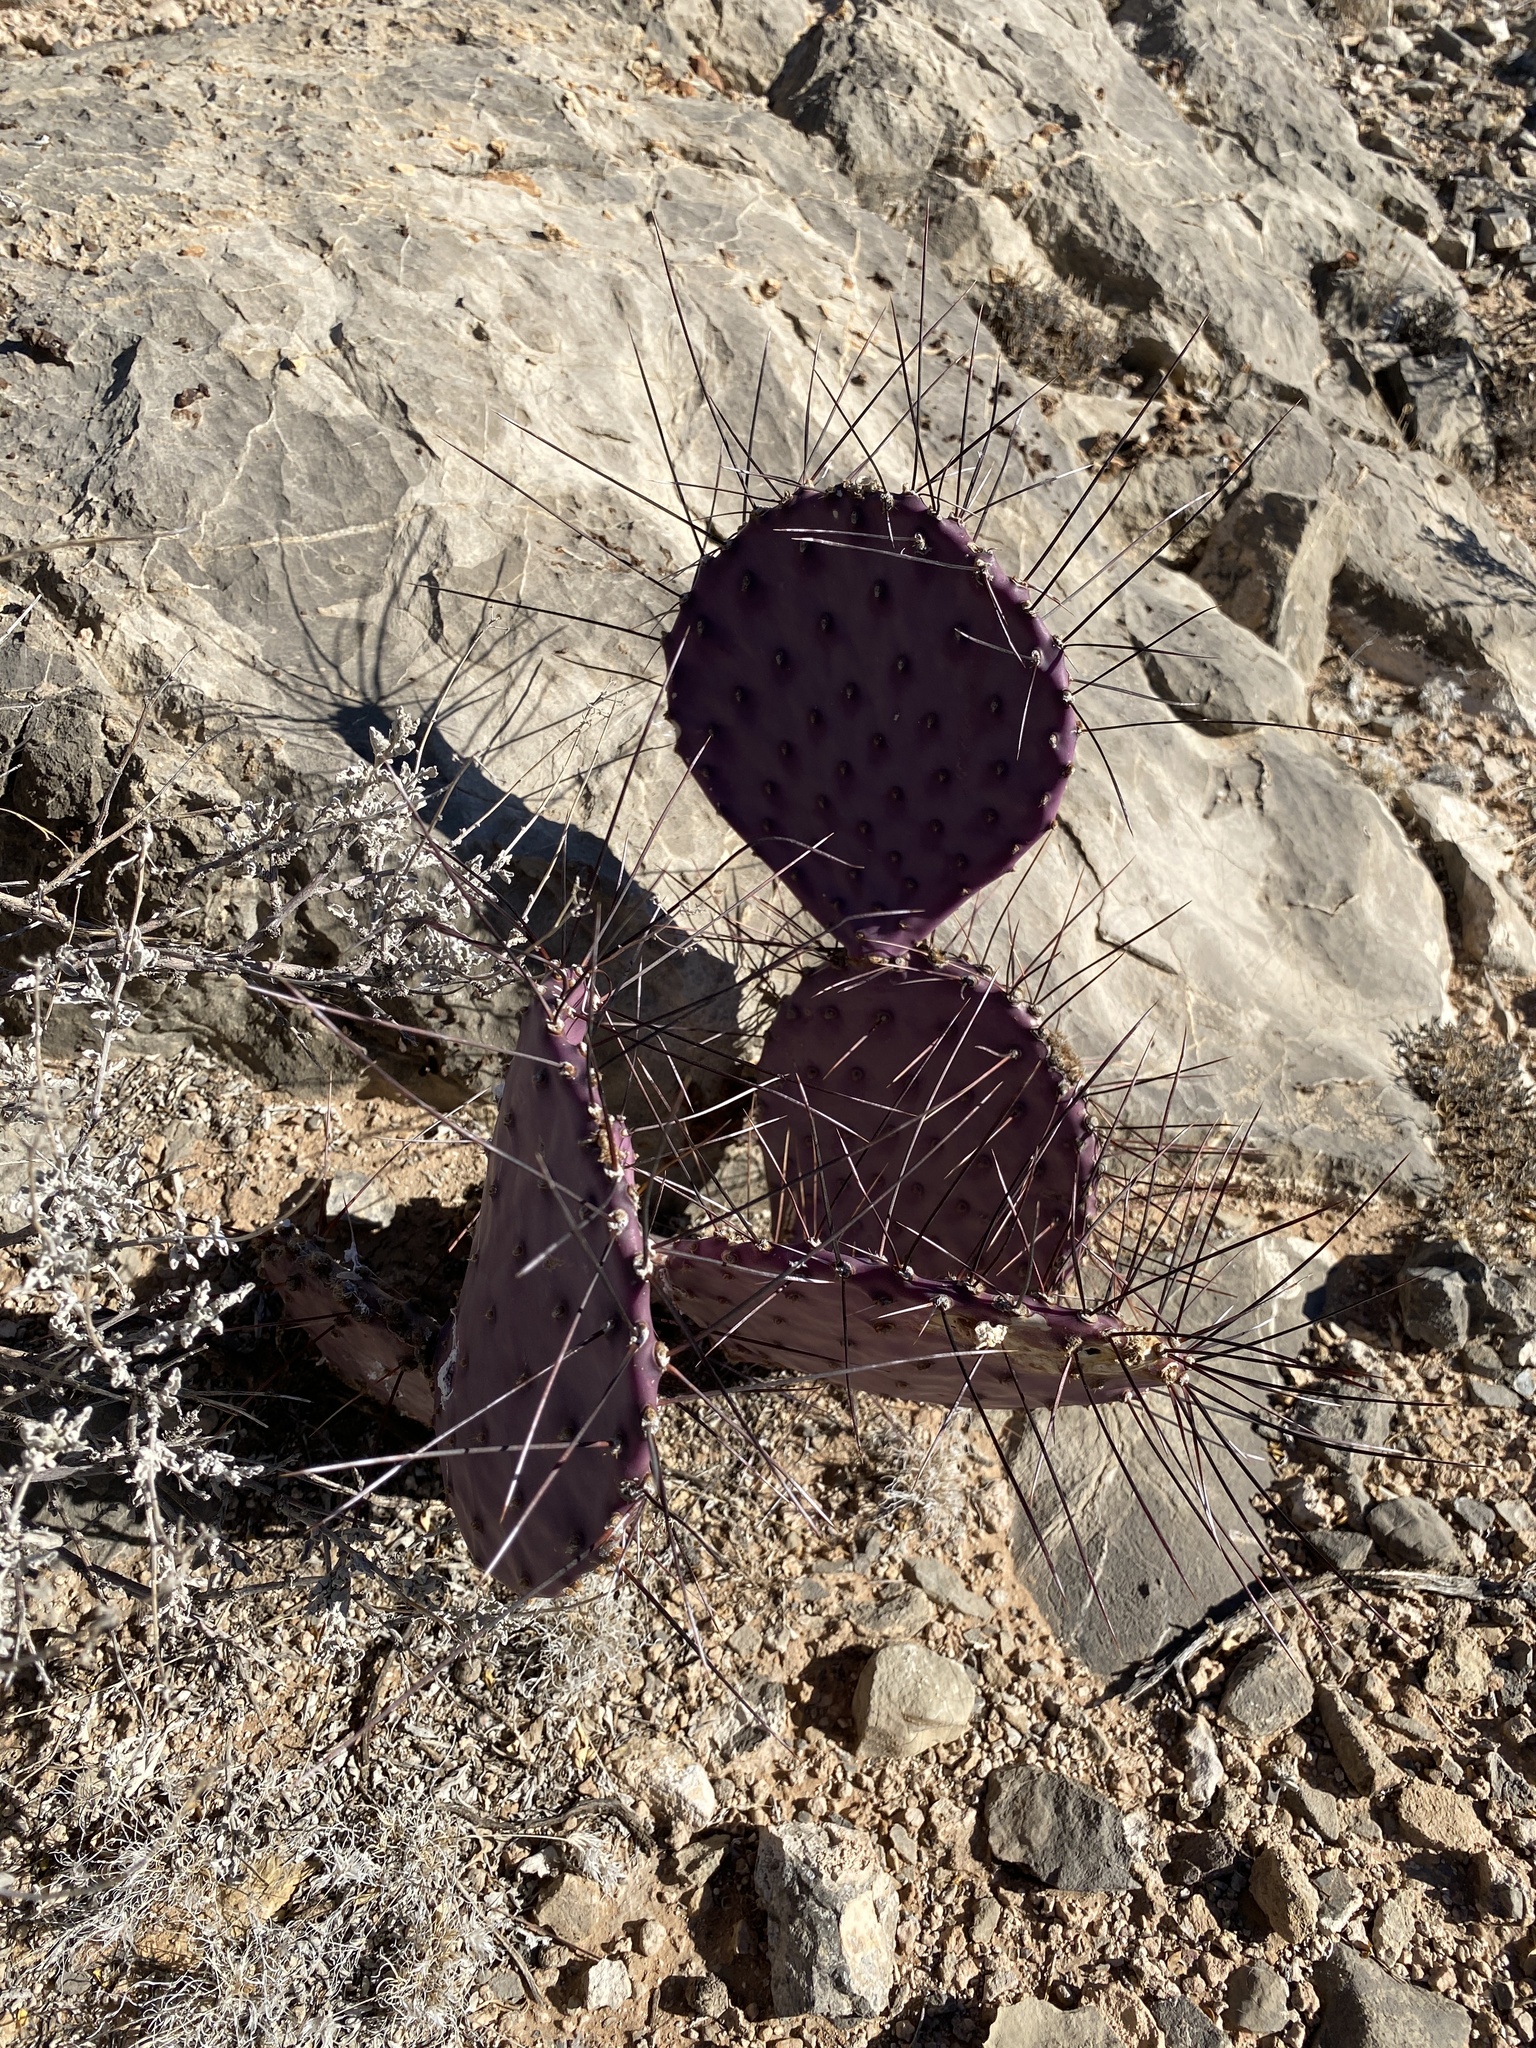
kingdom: Plantae
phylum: Tracheophyta
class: Magnoliopsida
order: Caryophyllales
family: Cactaceae
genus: Opuntia
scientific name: Opuntia macrocentra
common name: Purple prickly-pear
